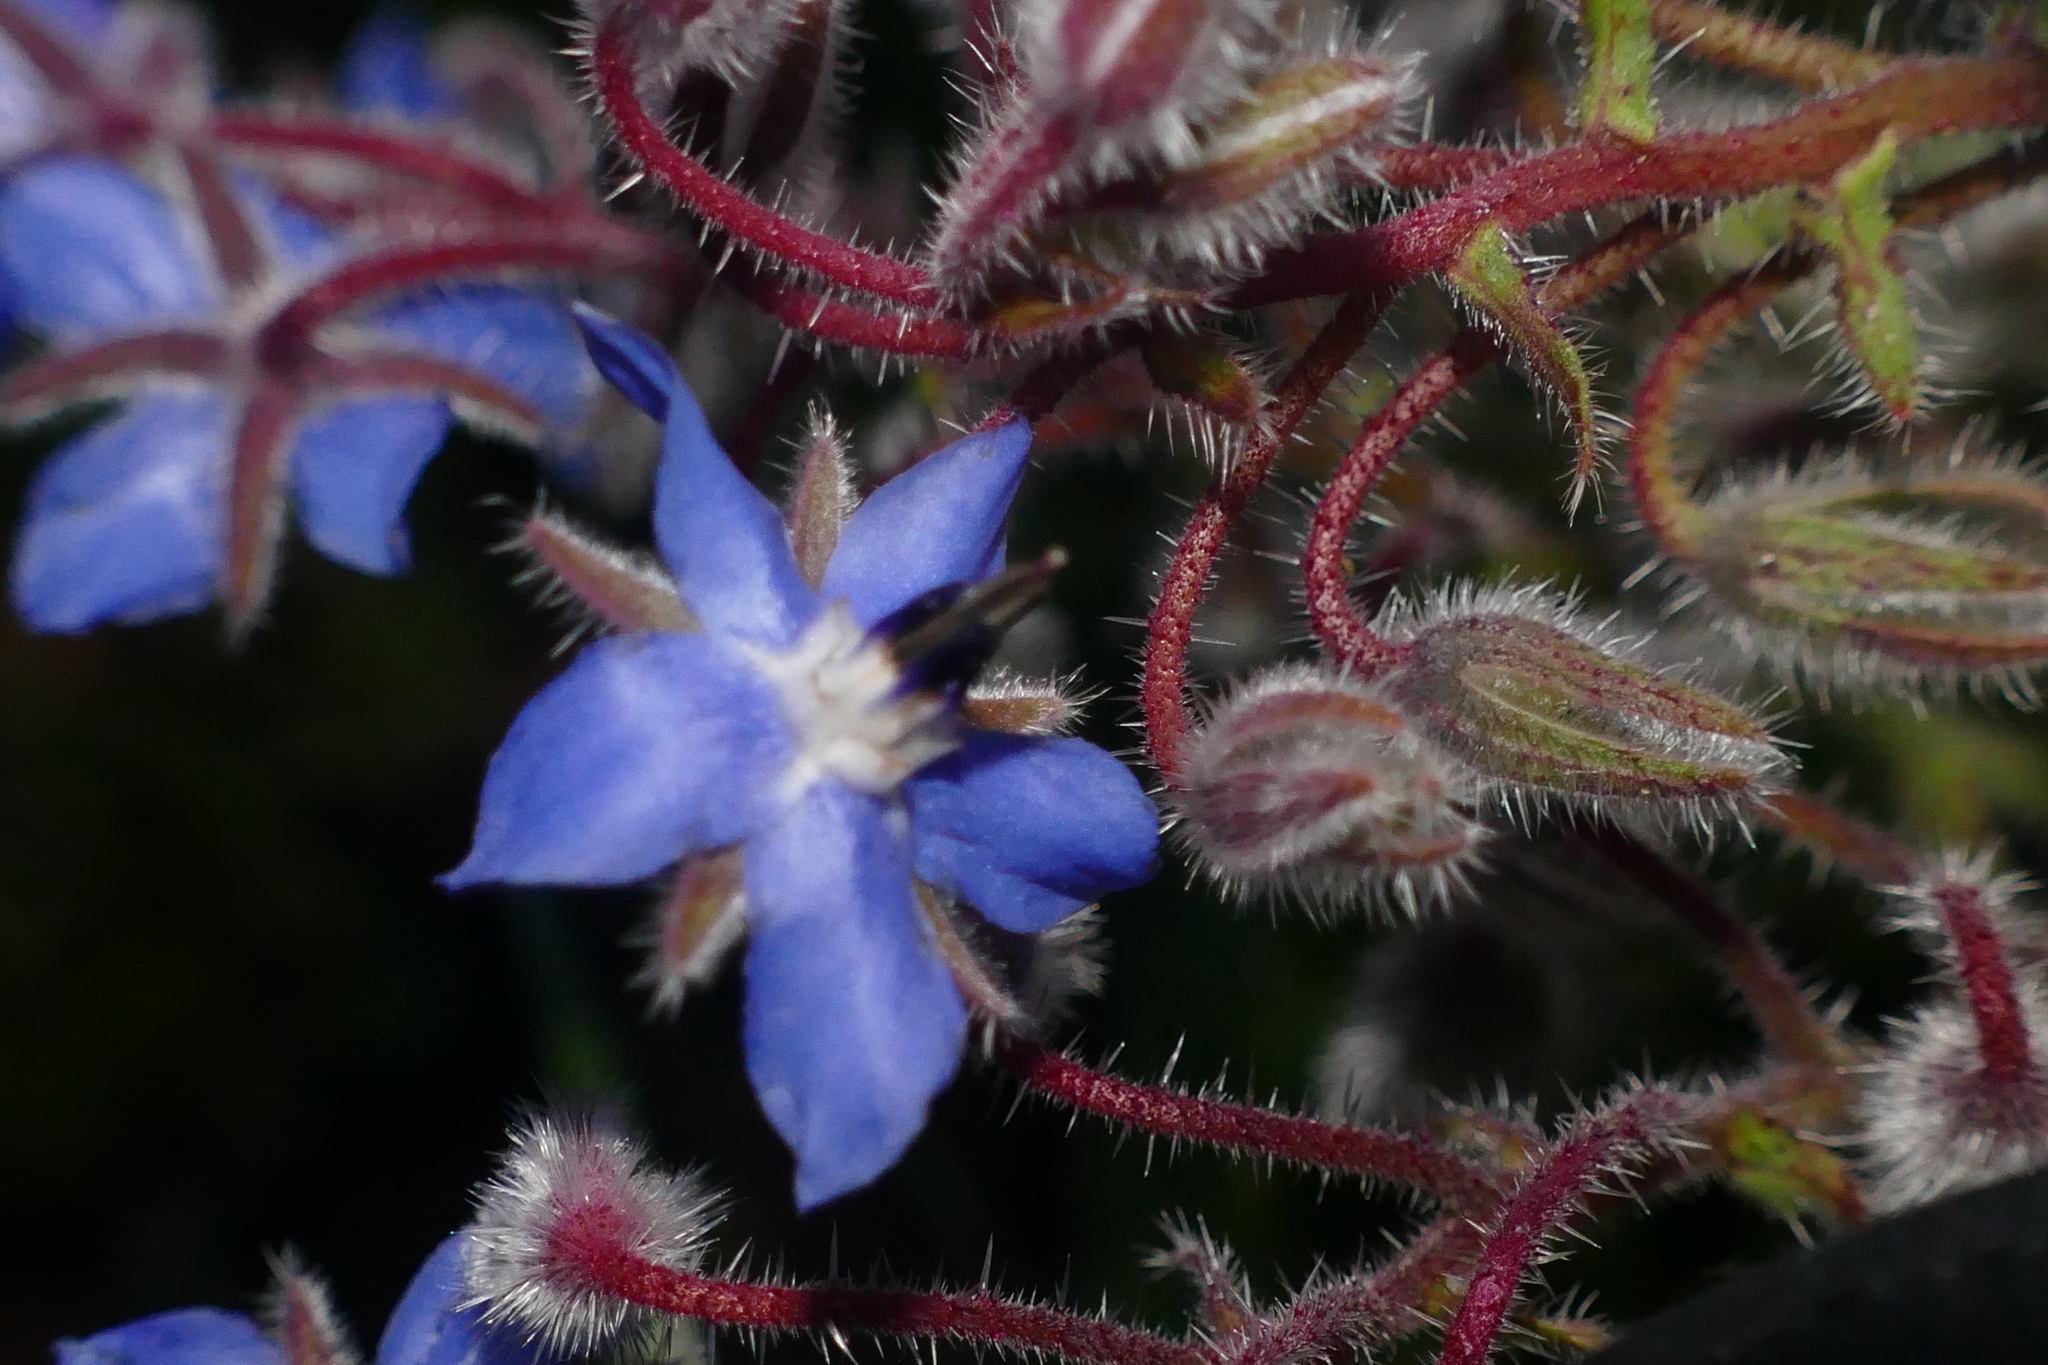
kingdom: Plantae
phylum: Tracheophyta
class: Magnoliopsida
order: Boraginales
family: Boraginaceae
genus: Borago
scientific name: Borago officinalis
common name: Borage
